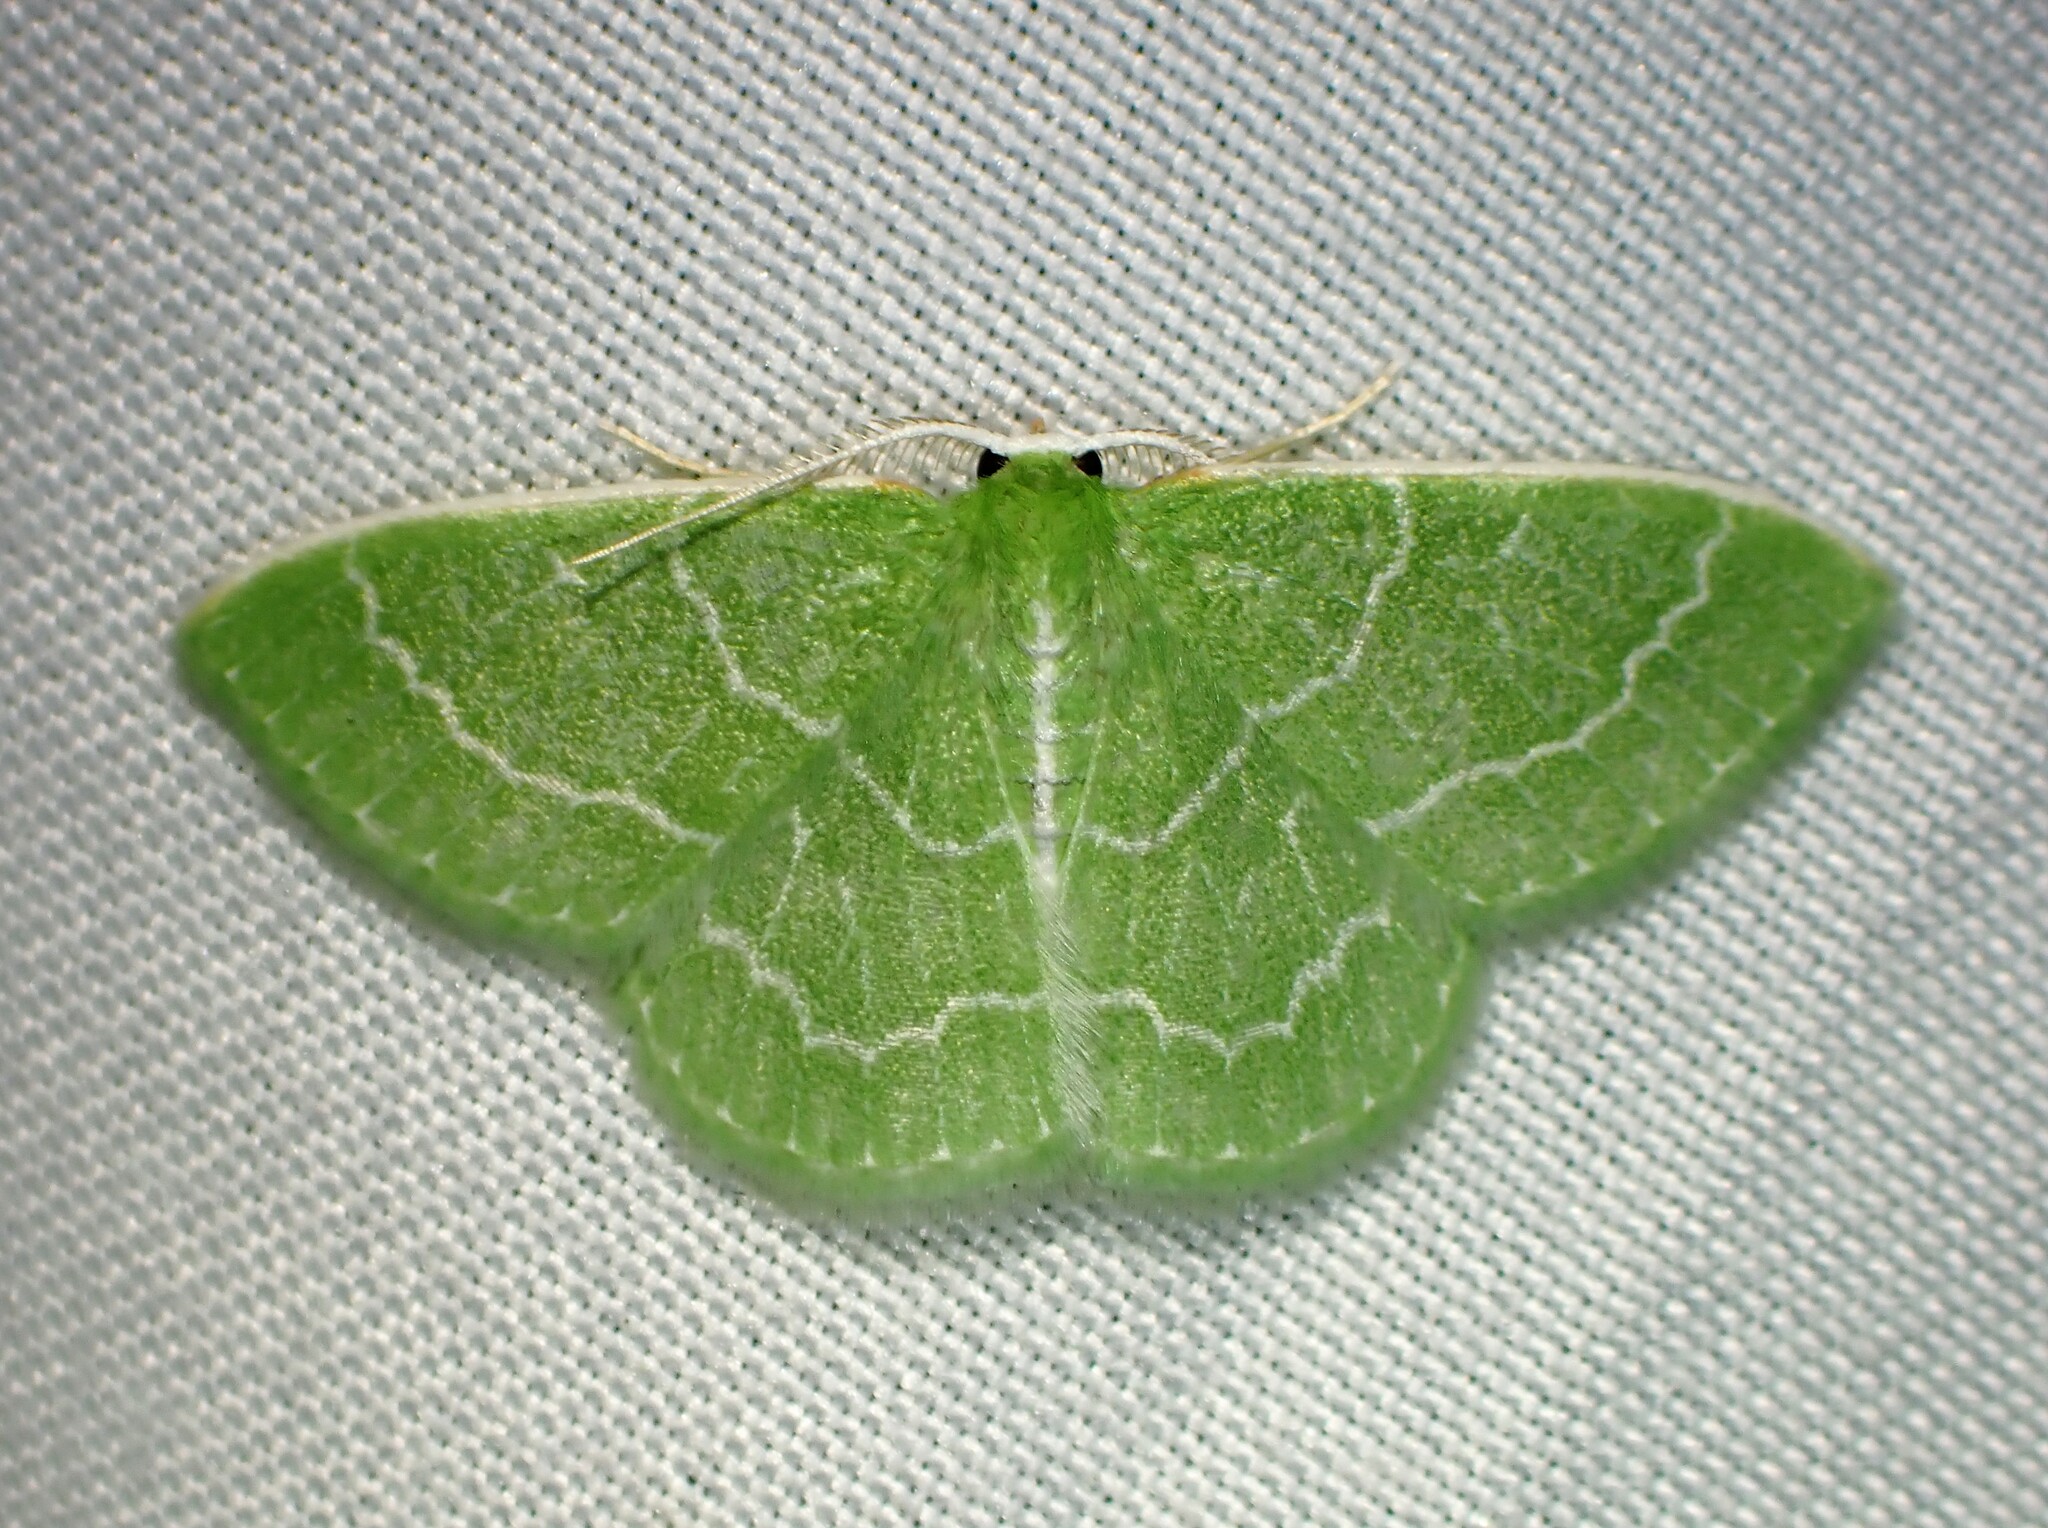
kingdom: Animalia
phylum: Arthropoda
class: Insecta
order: Lepidoptera
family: Geometridae
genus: Synchlora
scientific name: Synchlora aerata
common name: Wavy-lined emerald
